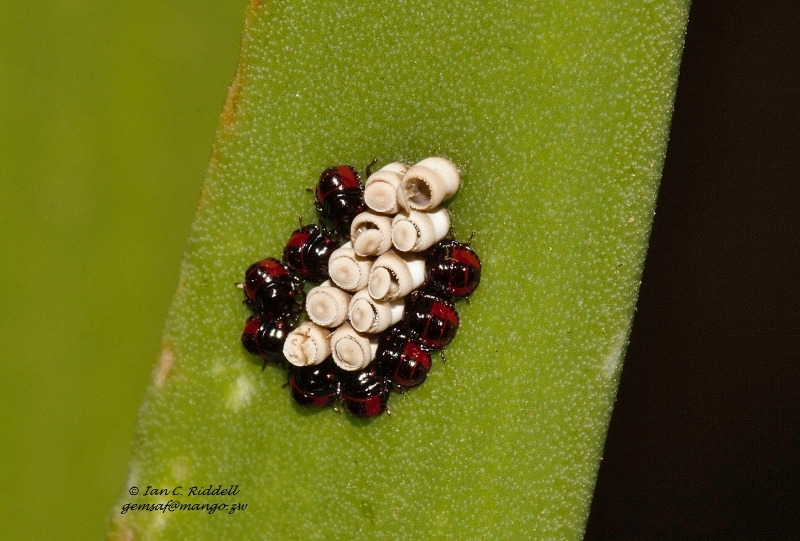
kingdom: Animalia
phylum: Arthropoda
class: Insecta
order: Hemiptera
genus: Flaminia
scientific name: Flaminia
